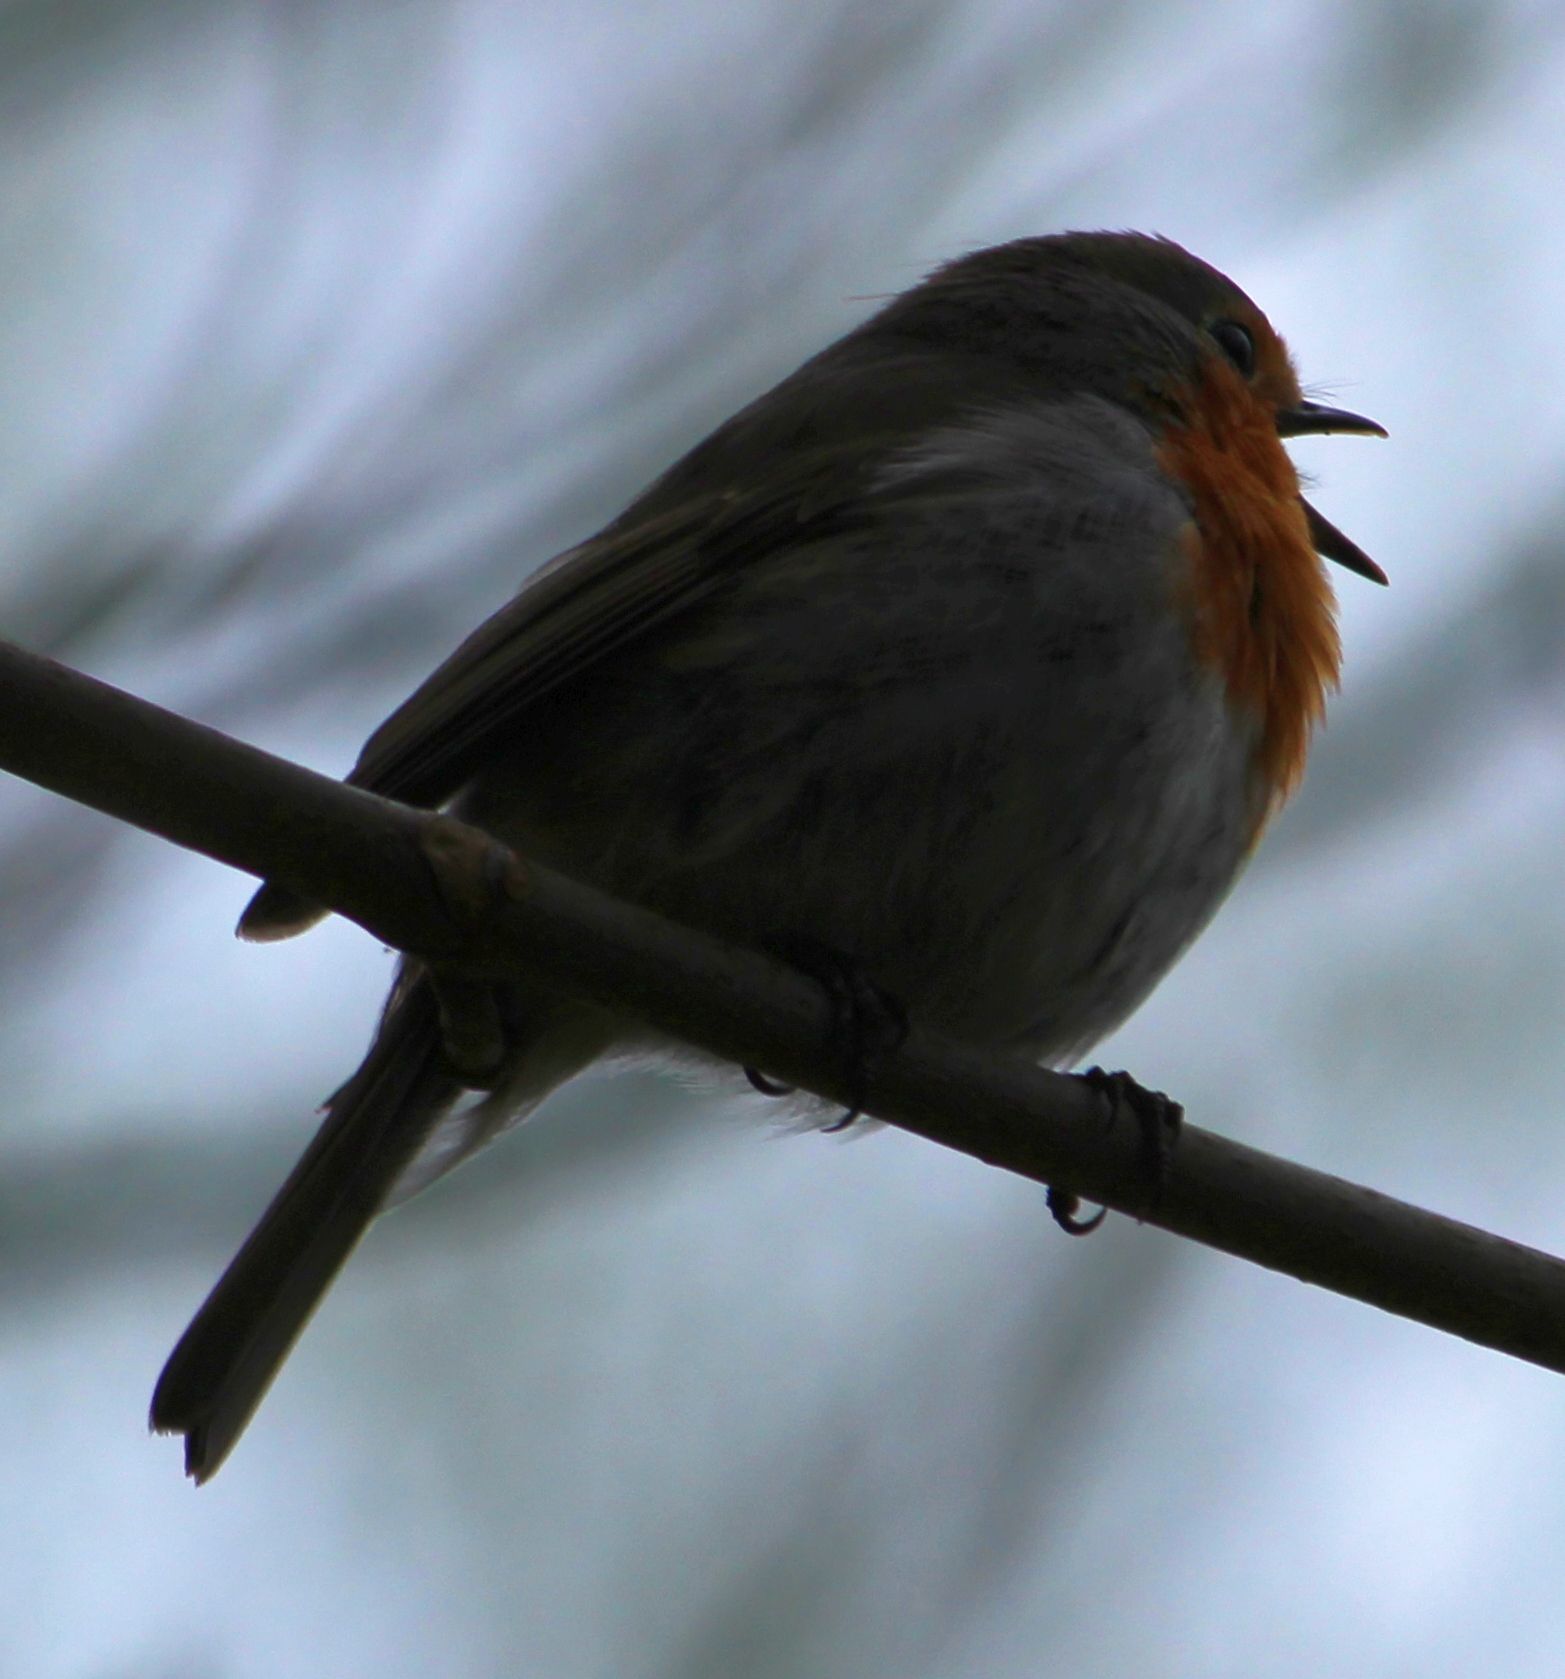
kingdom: Animalia
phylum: Chordata
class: Aves
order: Passeriformes
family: Muscicapidae
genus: Erithacus
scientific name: Erithacus rubecula
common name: European robin
